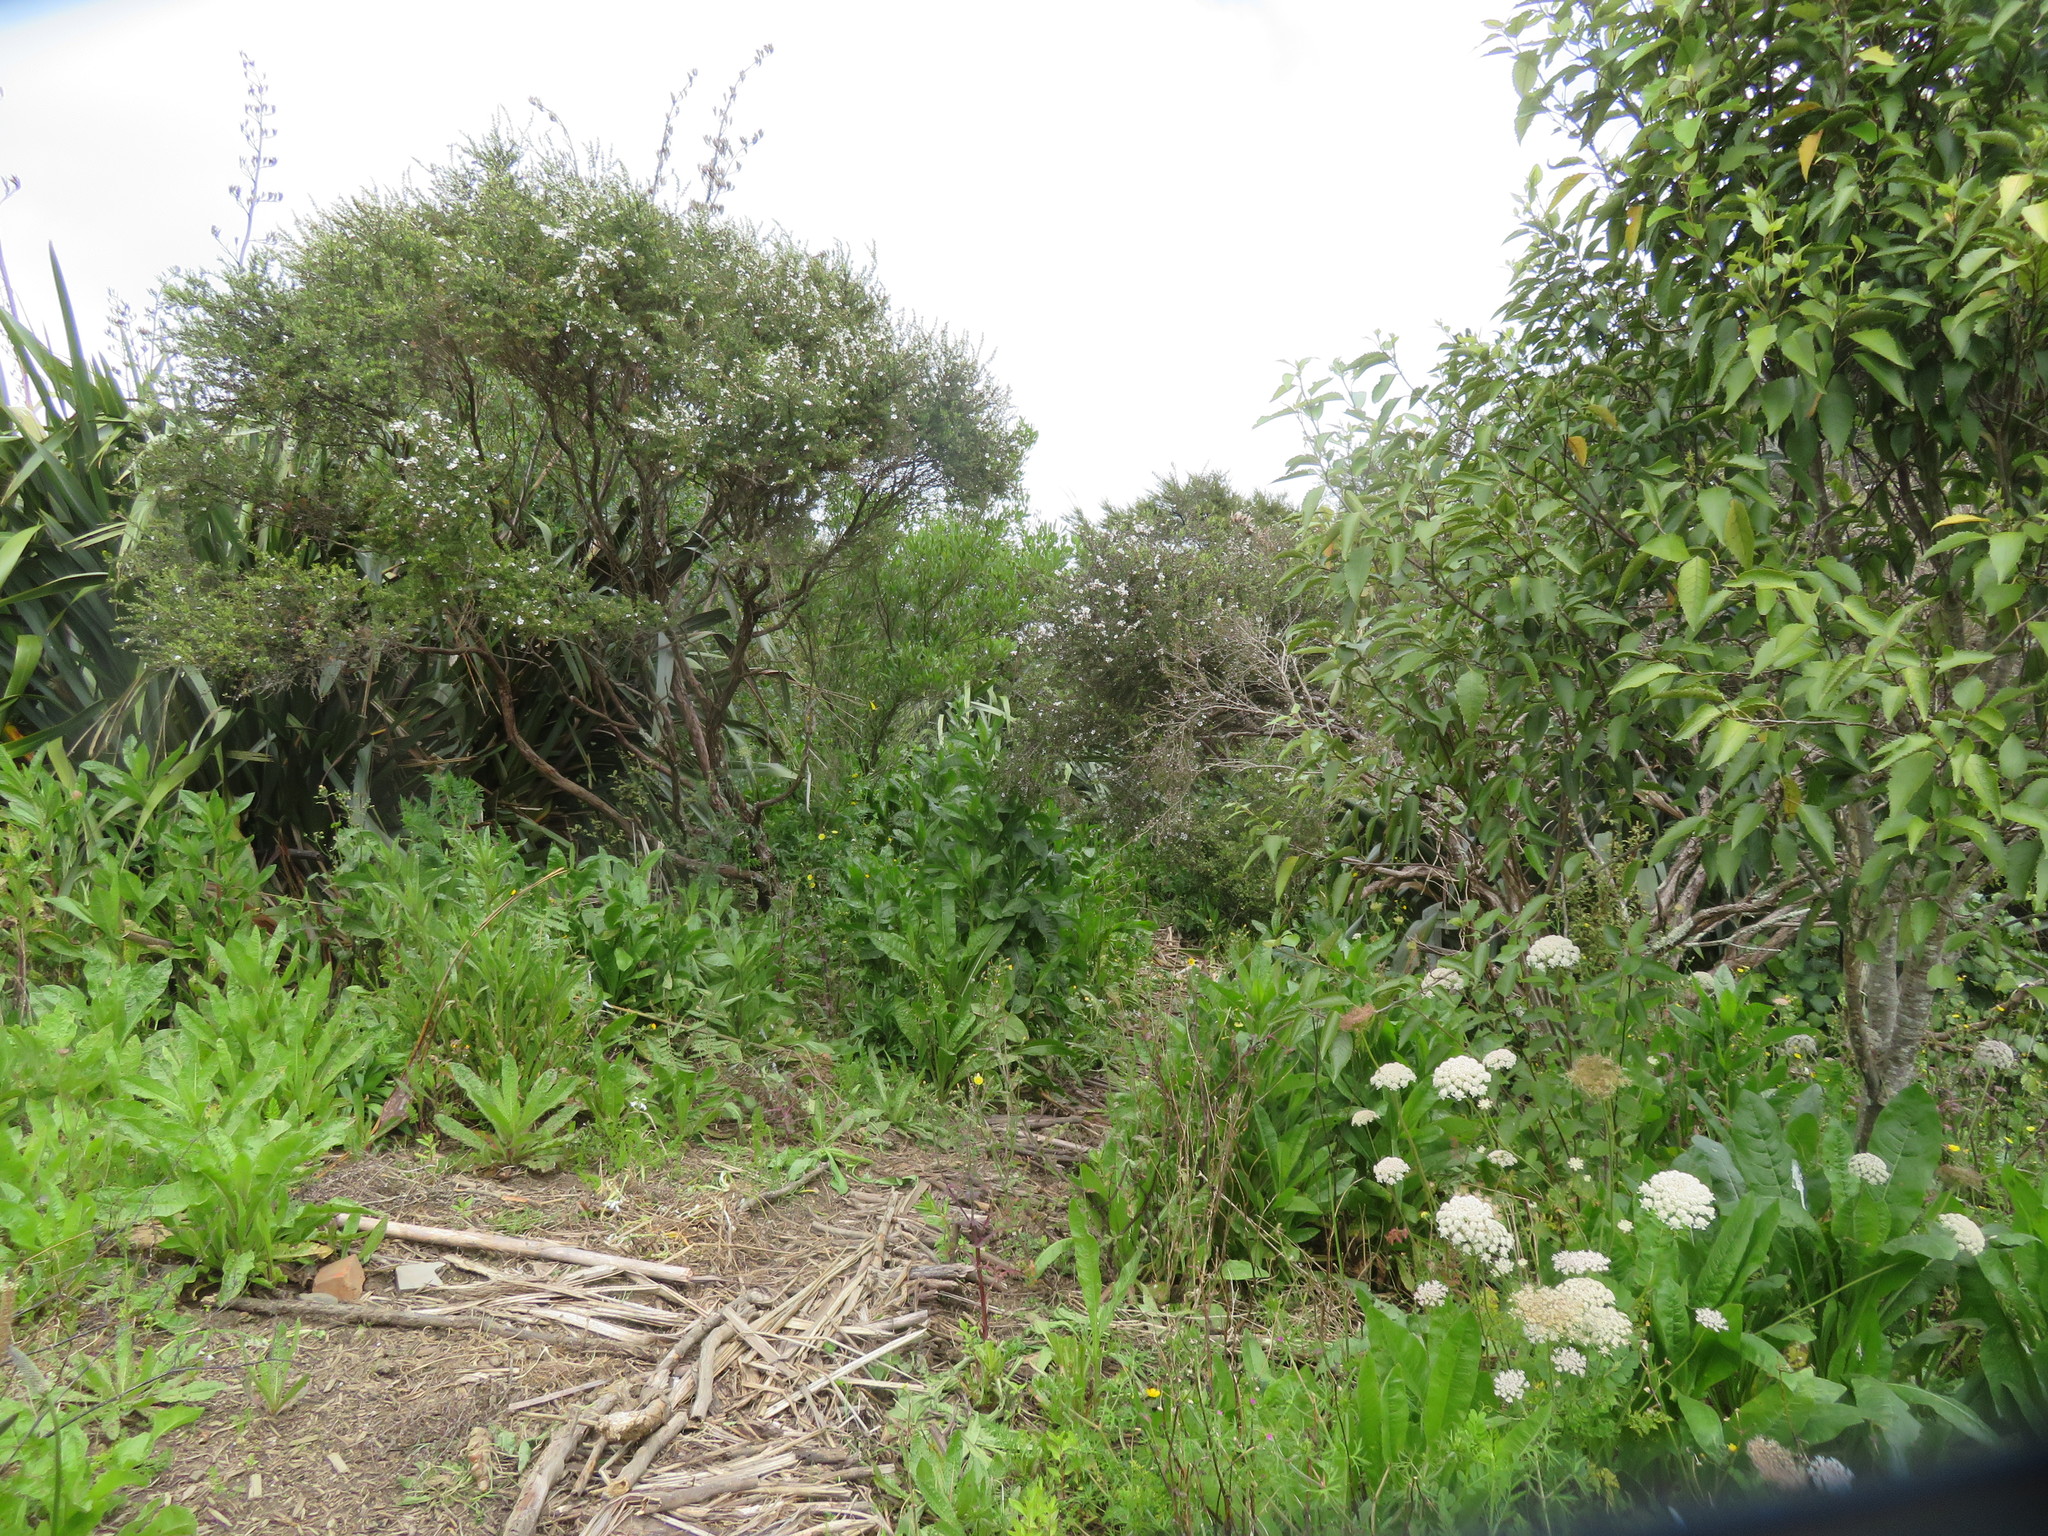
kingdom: Plantae
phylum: Tracheophyta
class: Magnoliopsida
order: Myrtales
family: Myrtaceae
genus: Leptospermum
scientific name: Leptospermum scoparium
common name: Broom tea-tree
